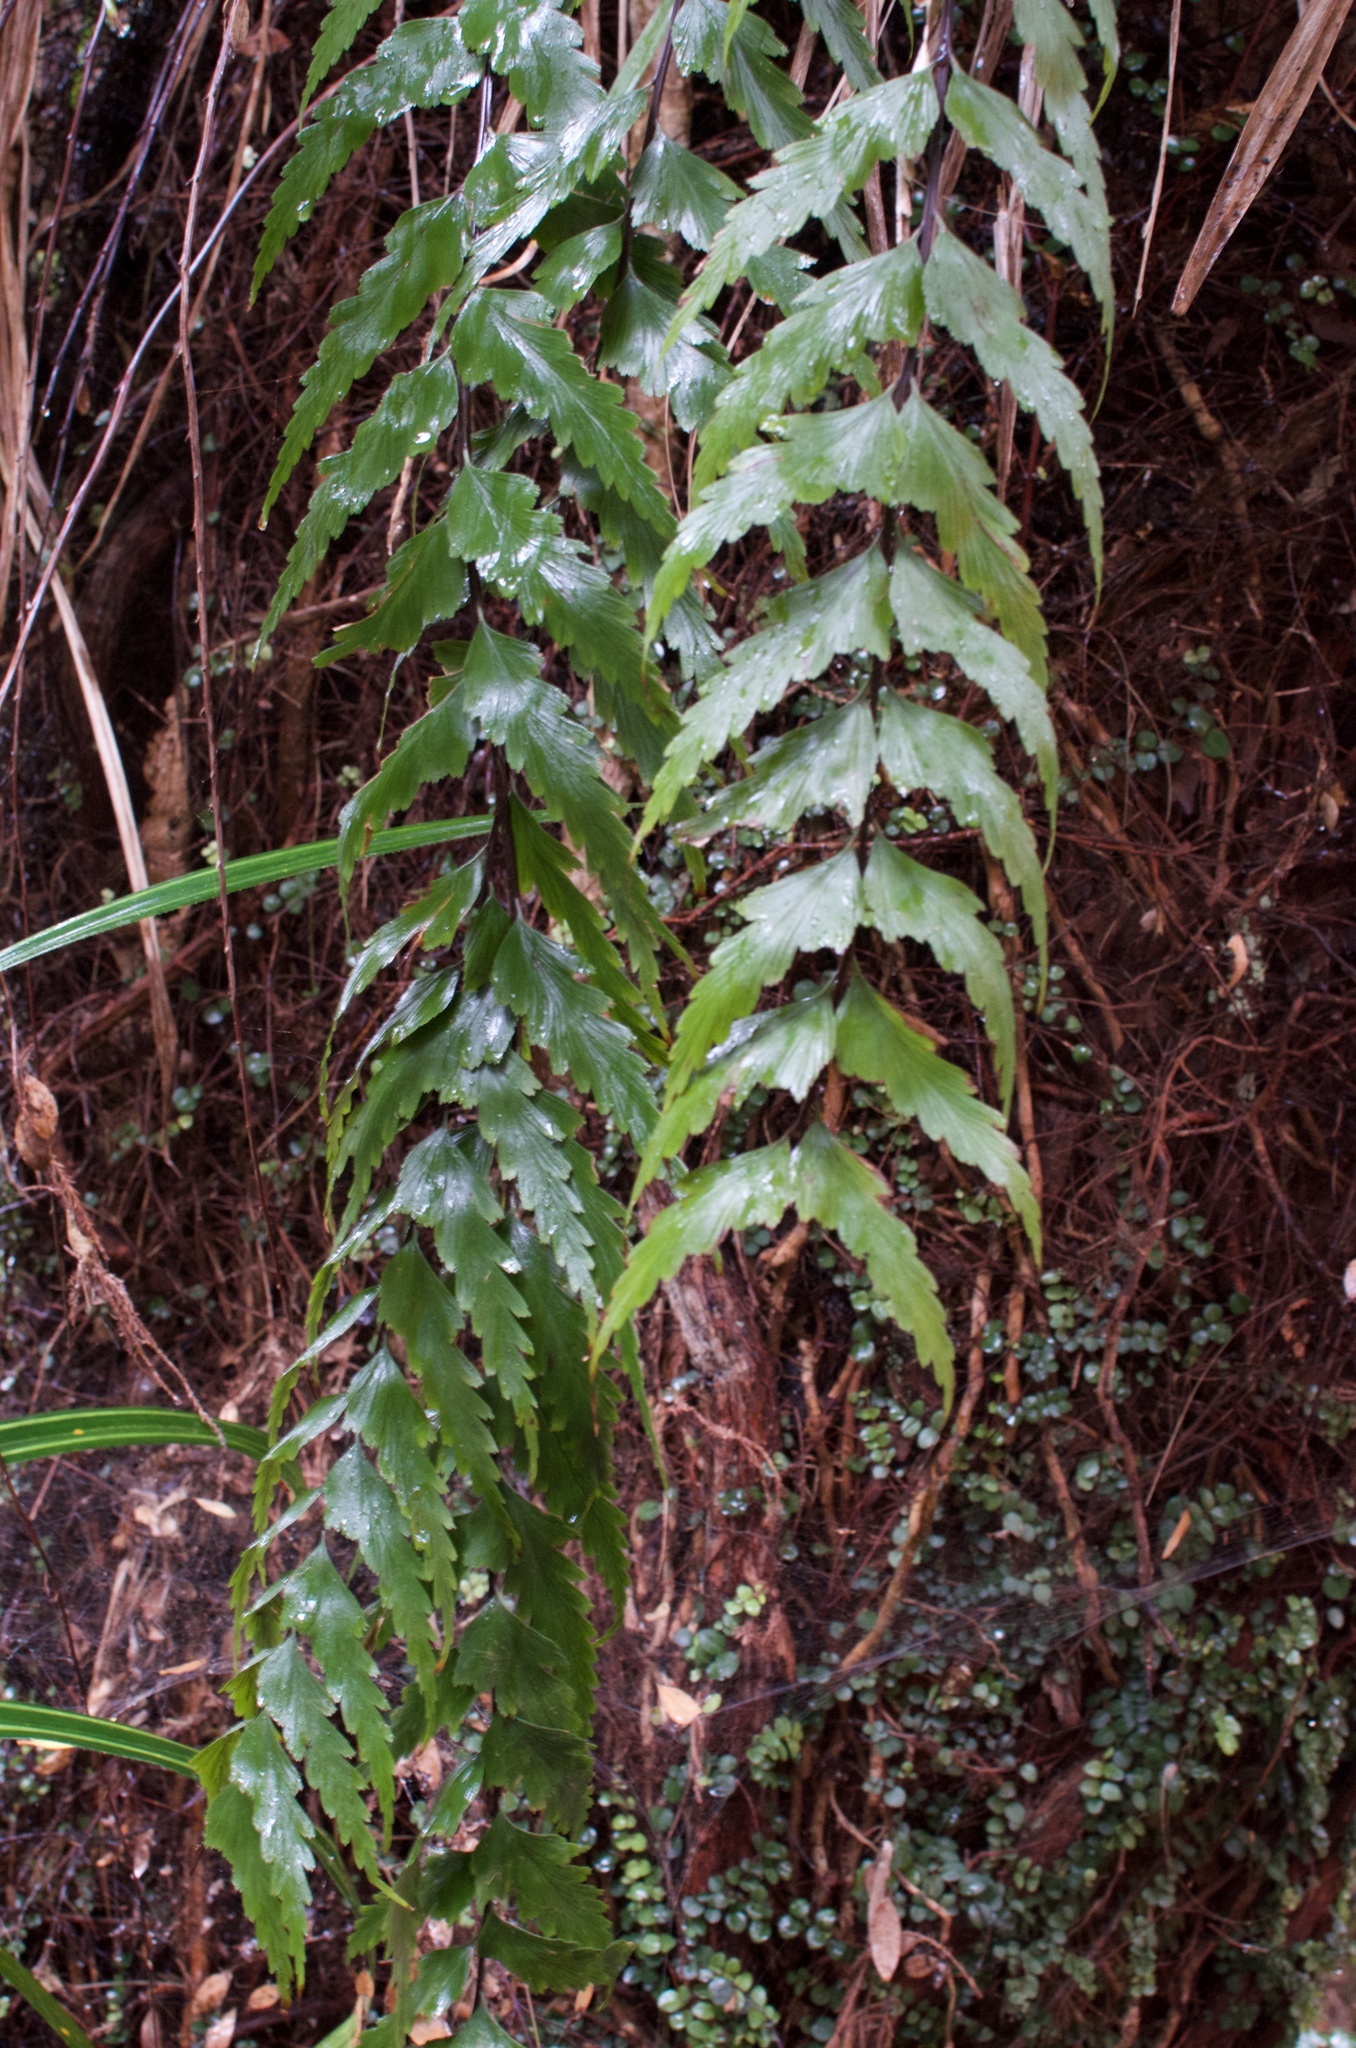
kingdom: Plantae
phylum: Tracheophyta
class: Polypodiopsida
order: Polypodiales
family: Aspleniaceae
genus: Asplenium
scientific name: Asplenium polyodon
